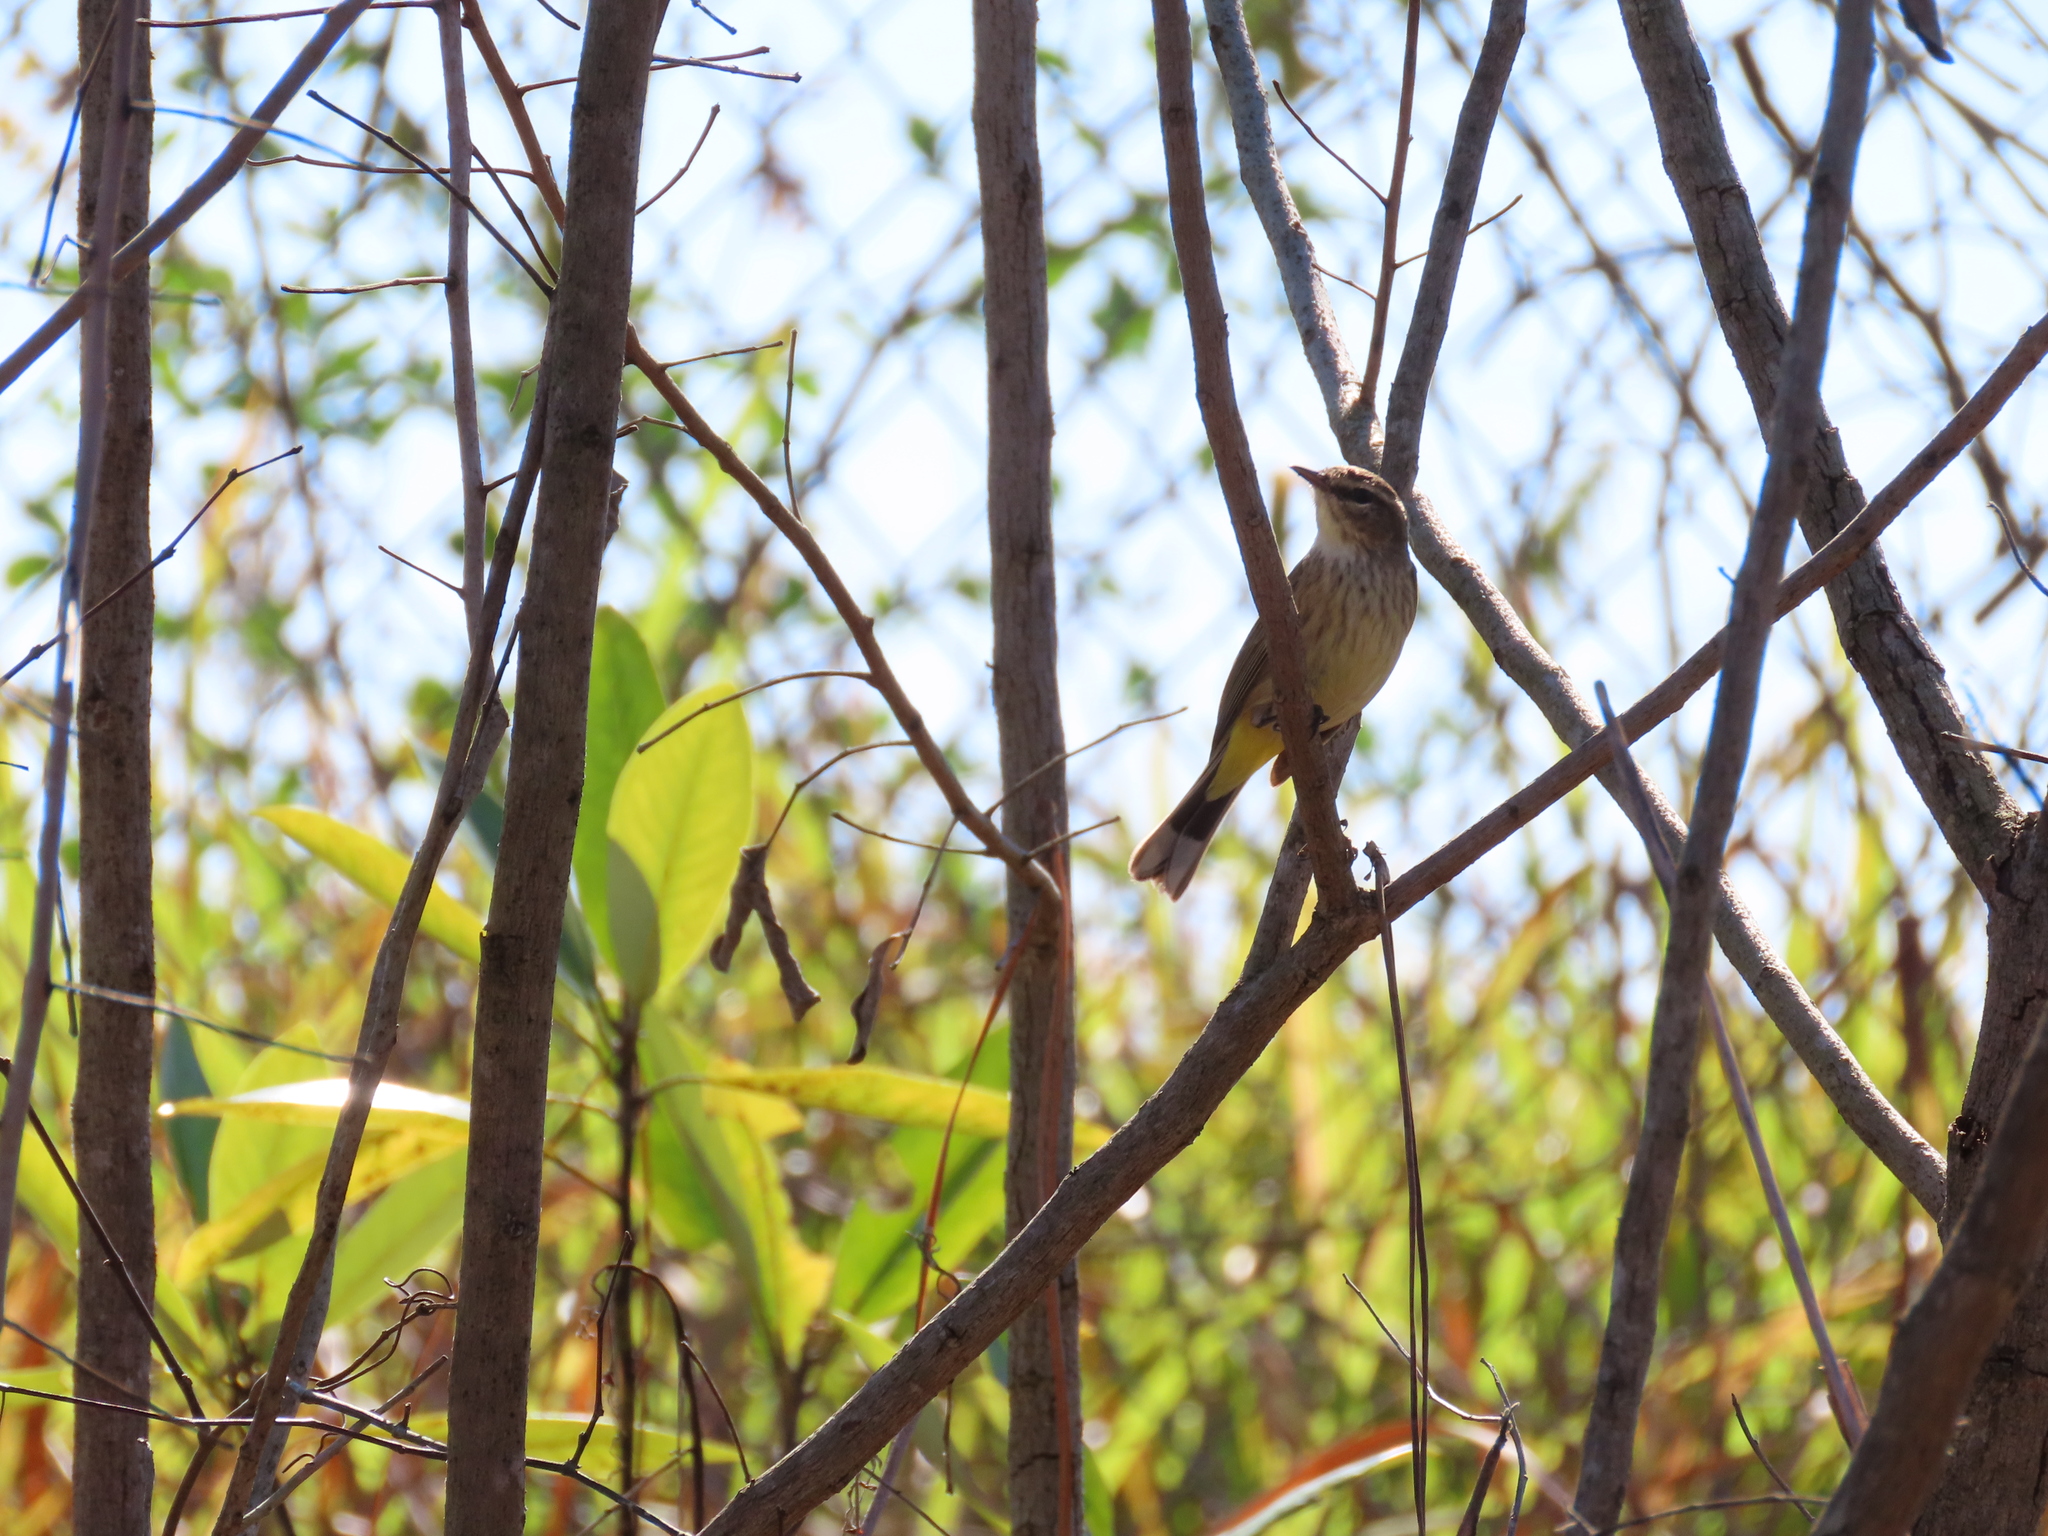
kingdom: Animalia
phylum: Chordata
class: Aves
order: Passeriformes
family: Parulidae
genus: Setophaga
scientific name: Setophaga palmarum
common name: Palm warbler
